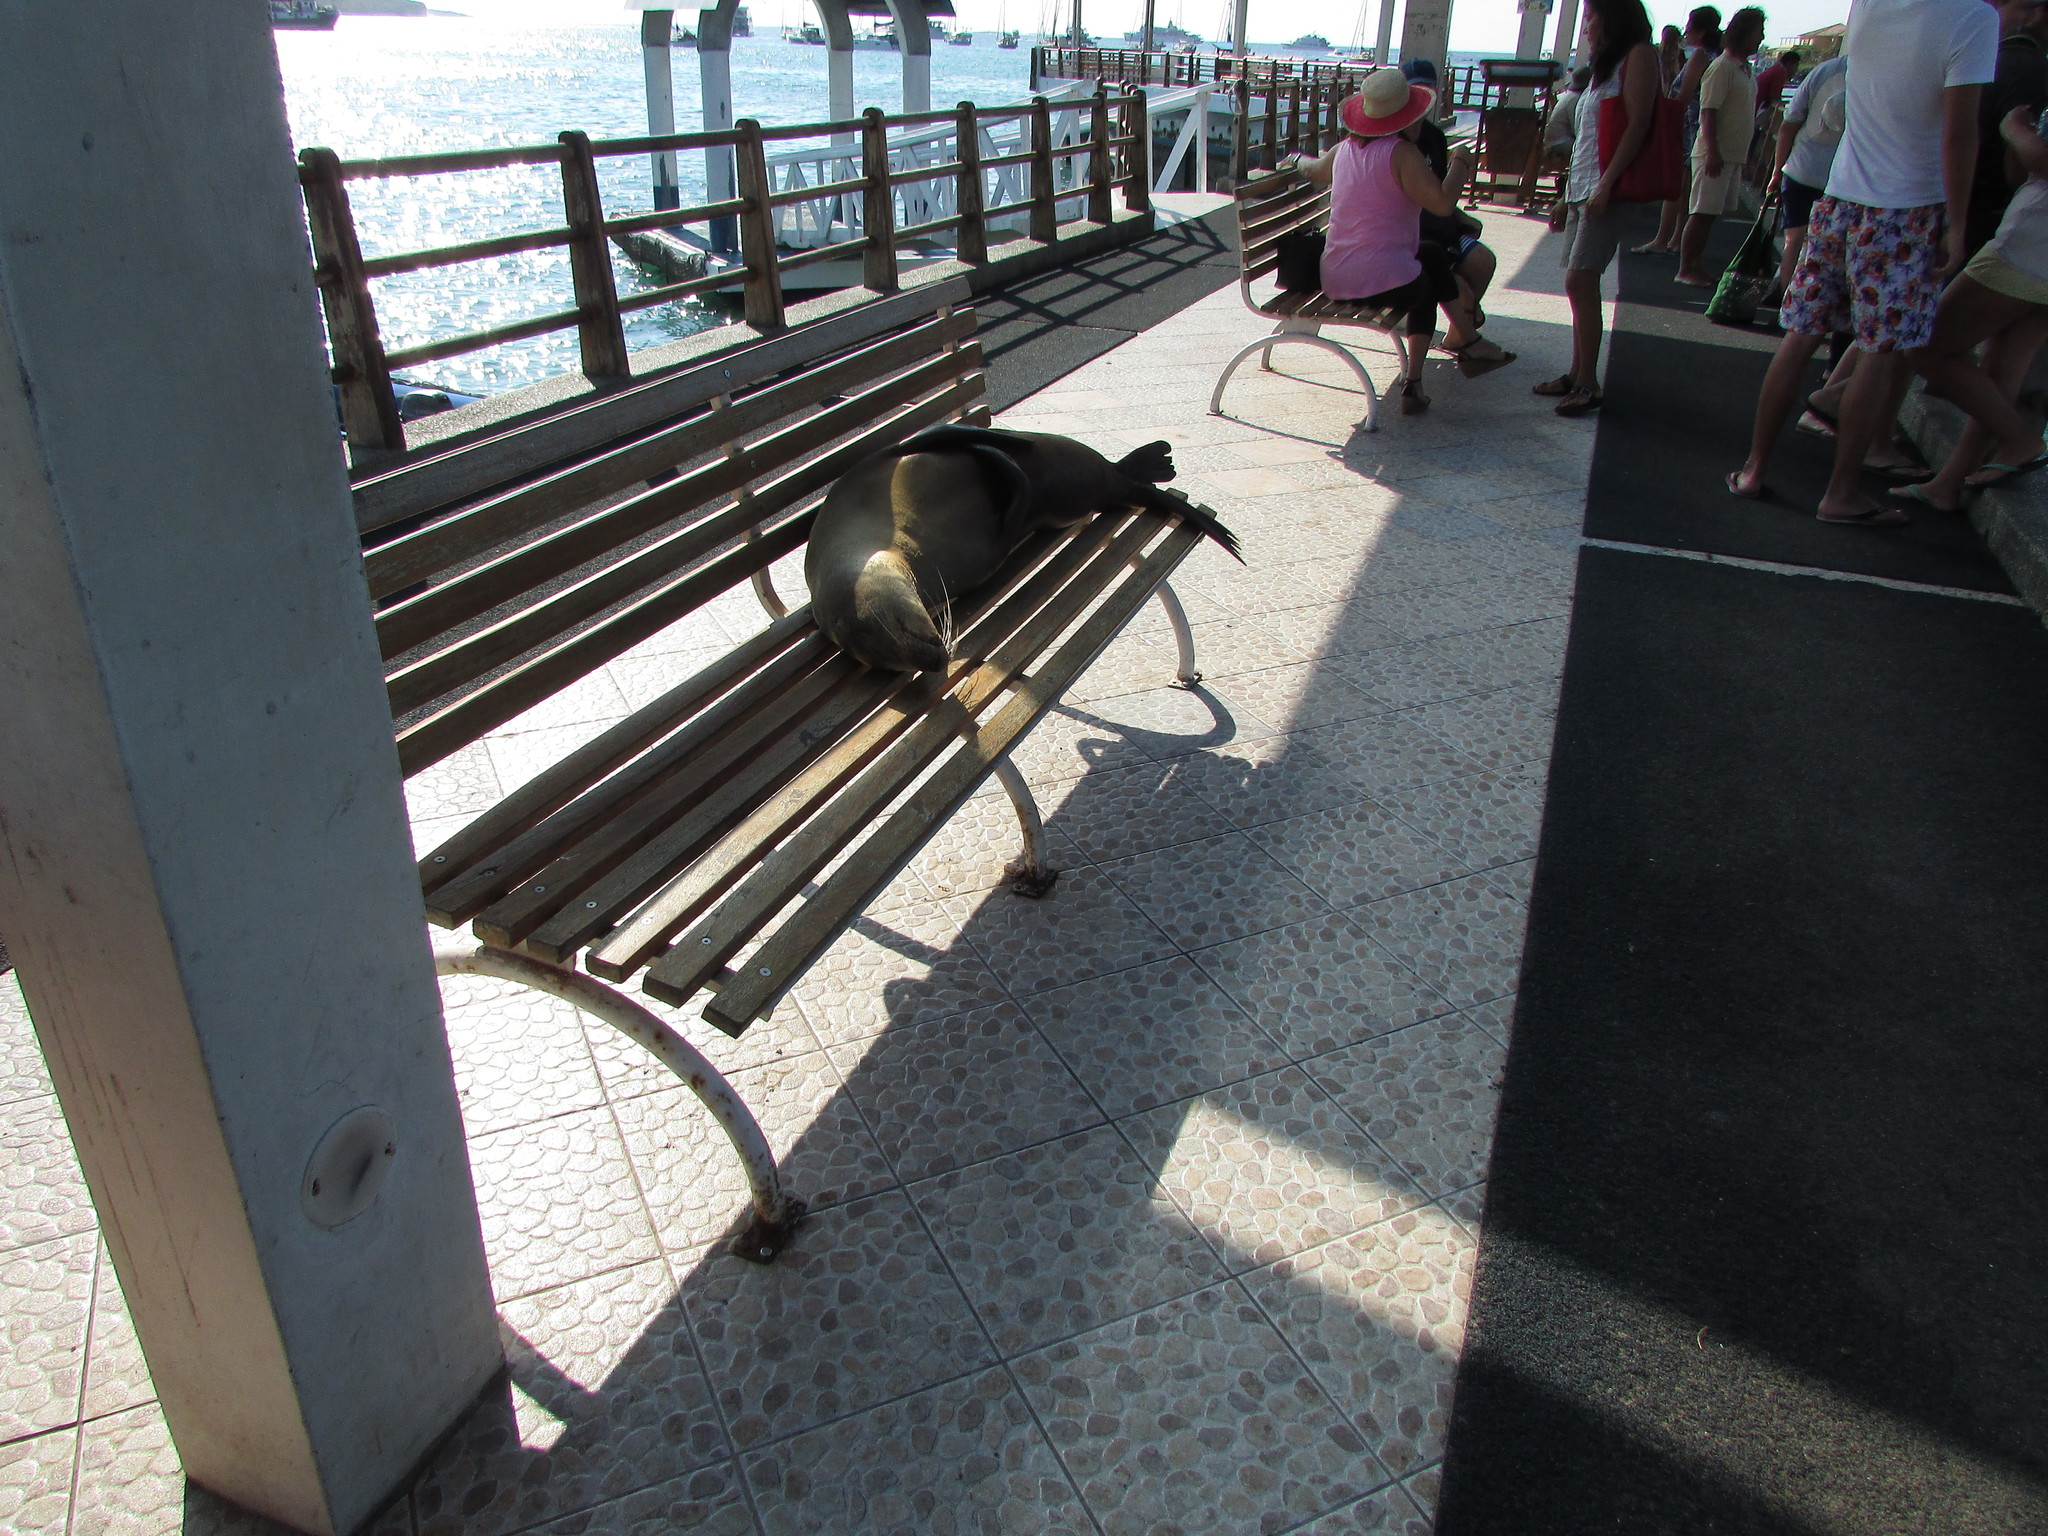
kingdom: Animalia
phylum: Chordata
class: Mammalia
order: Carnivora
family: Otariidae
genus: Zalophus
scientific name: Zalophus wollebaeki
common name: Galapagos sea lion
